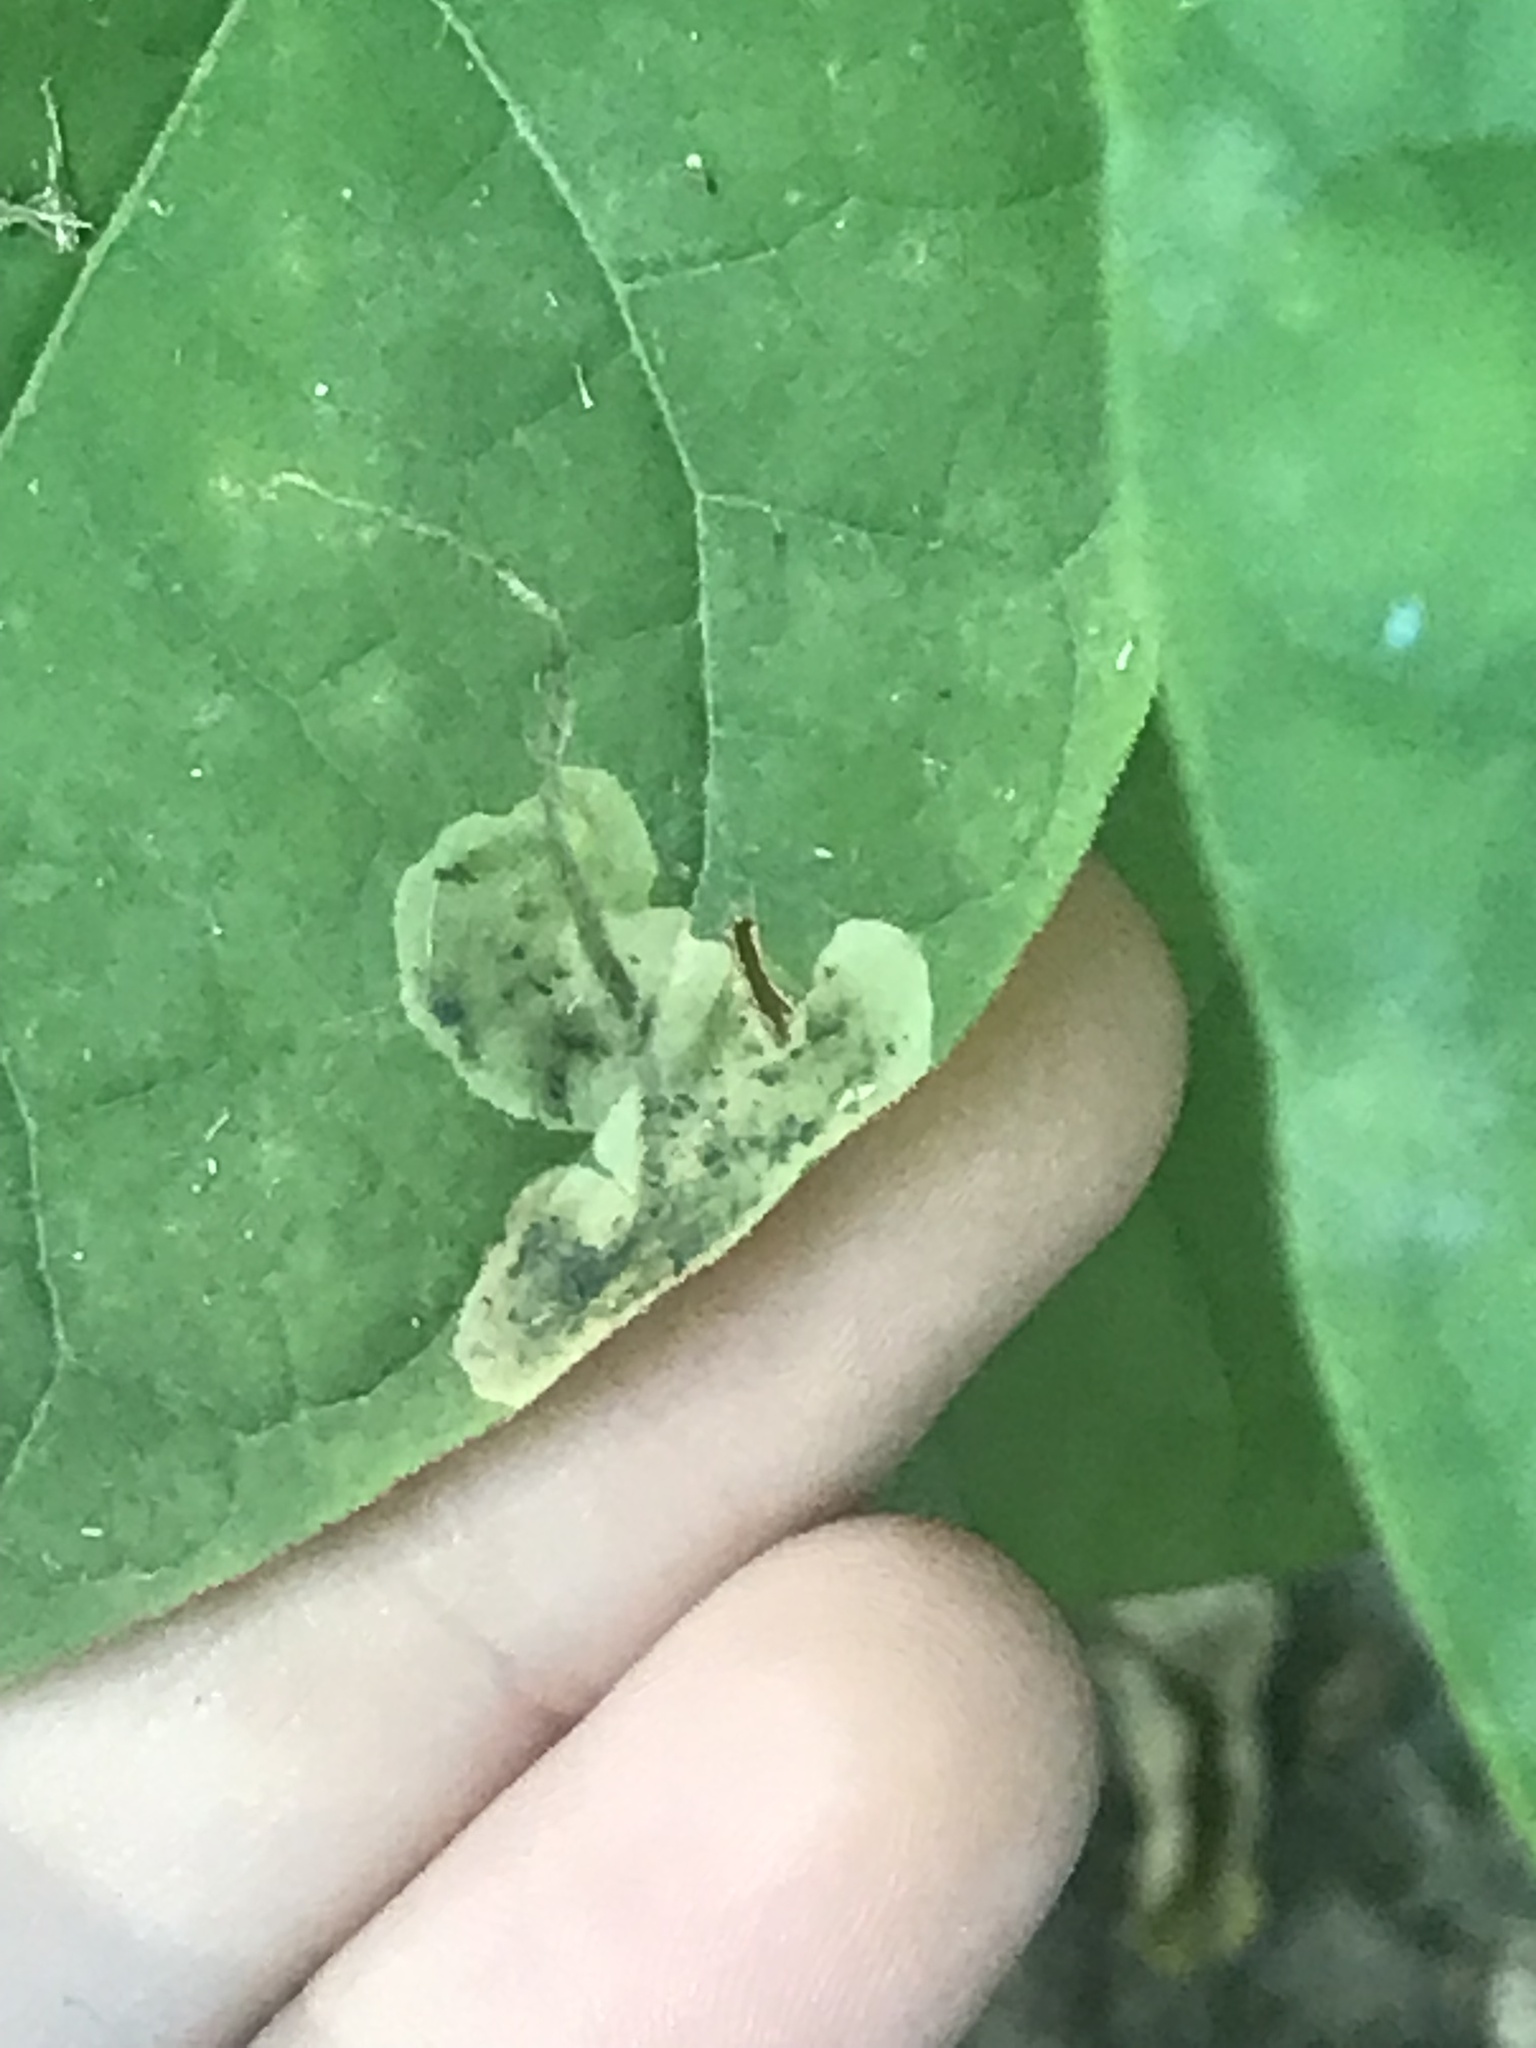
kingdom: Animalia
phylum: Arthropoda
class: Insecta
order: Diptera
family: Agromyzidae
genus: Amauromyza
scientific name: Amauromyza pleuralis
